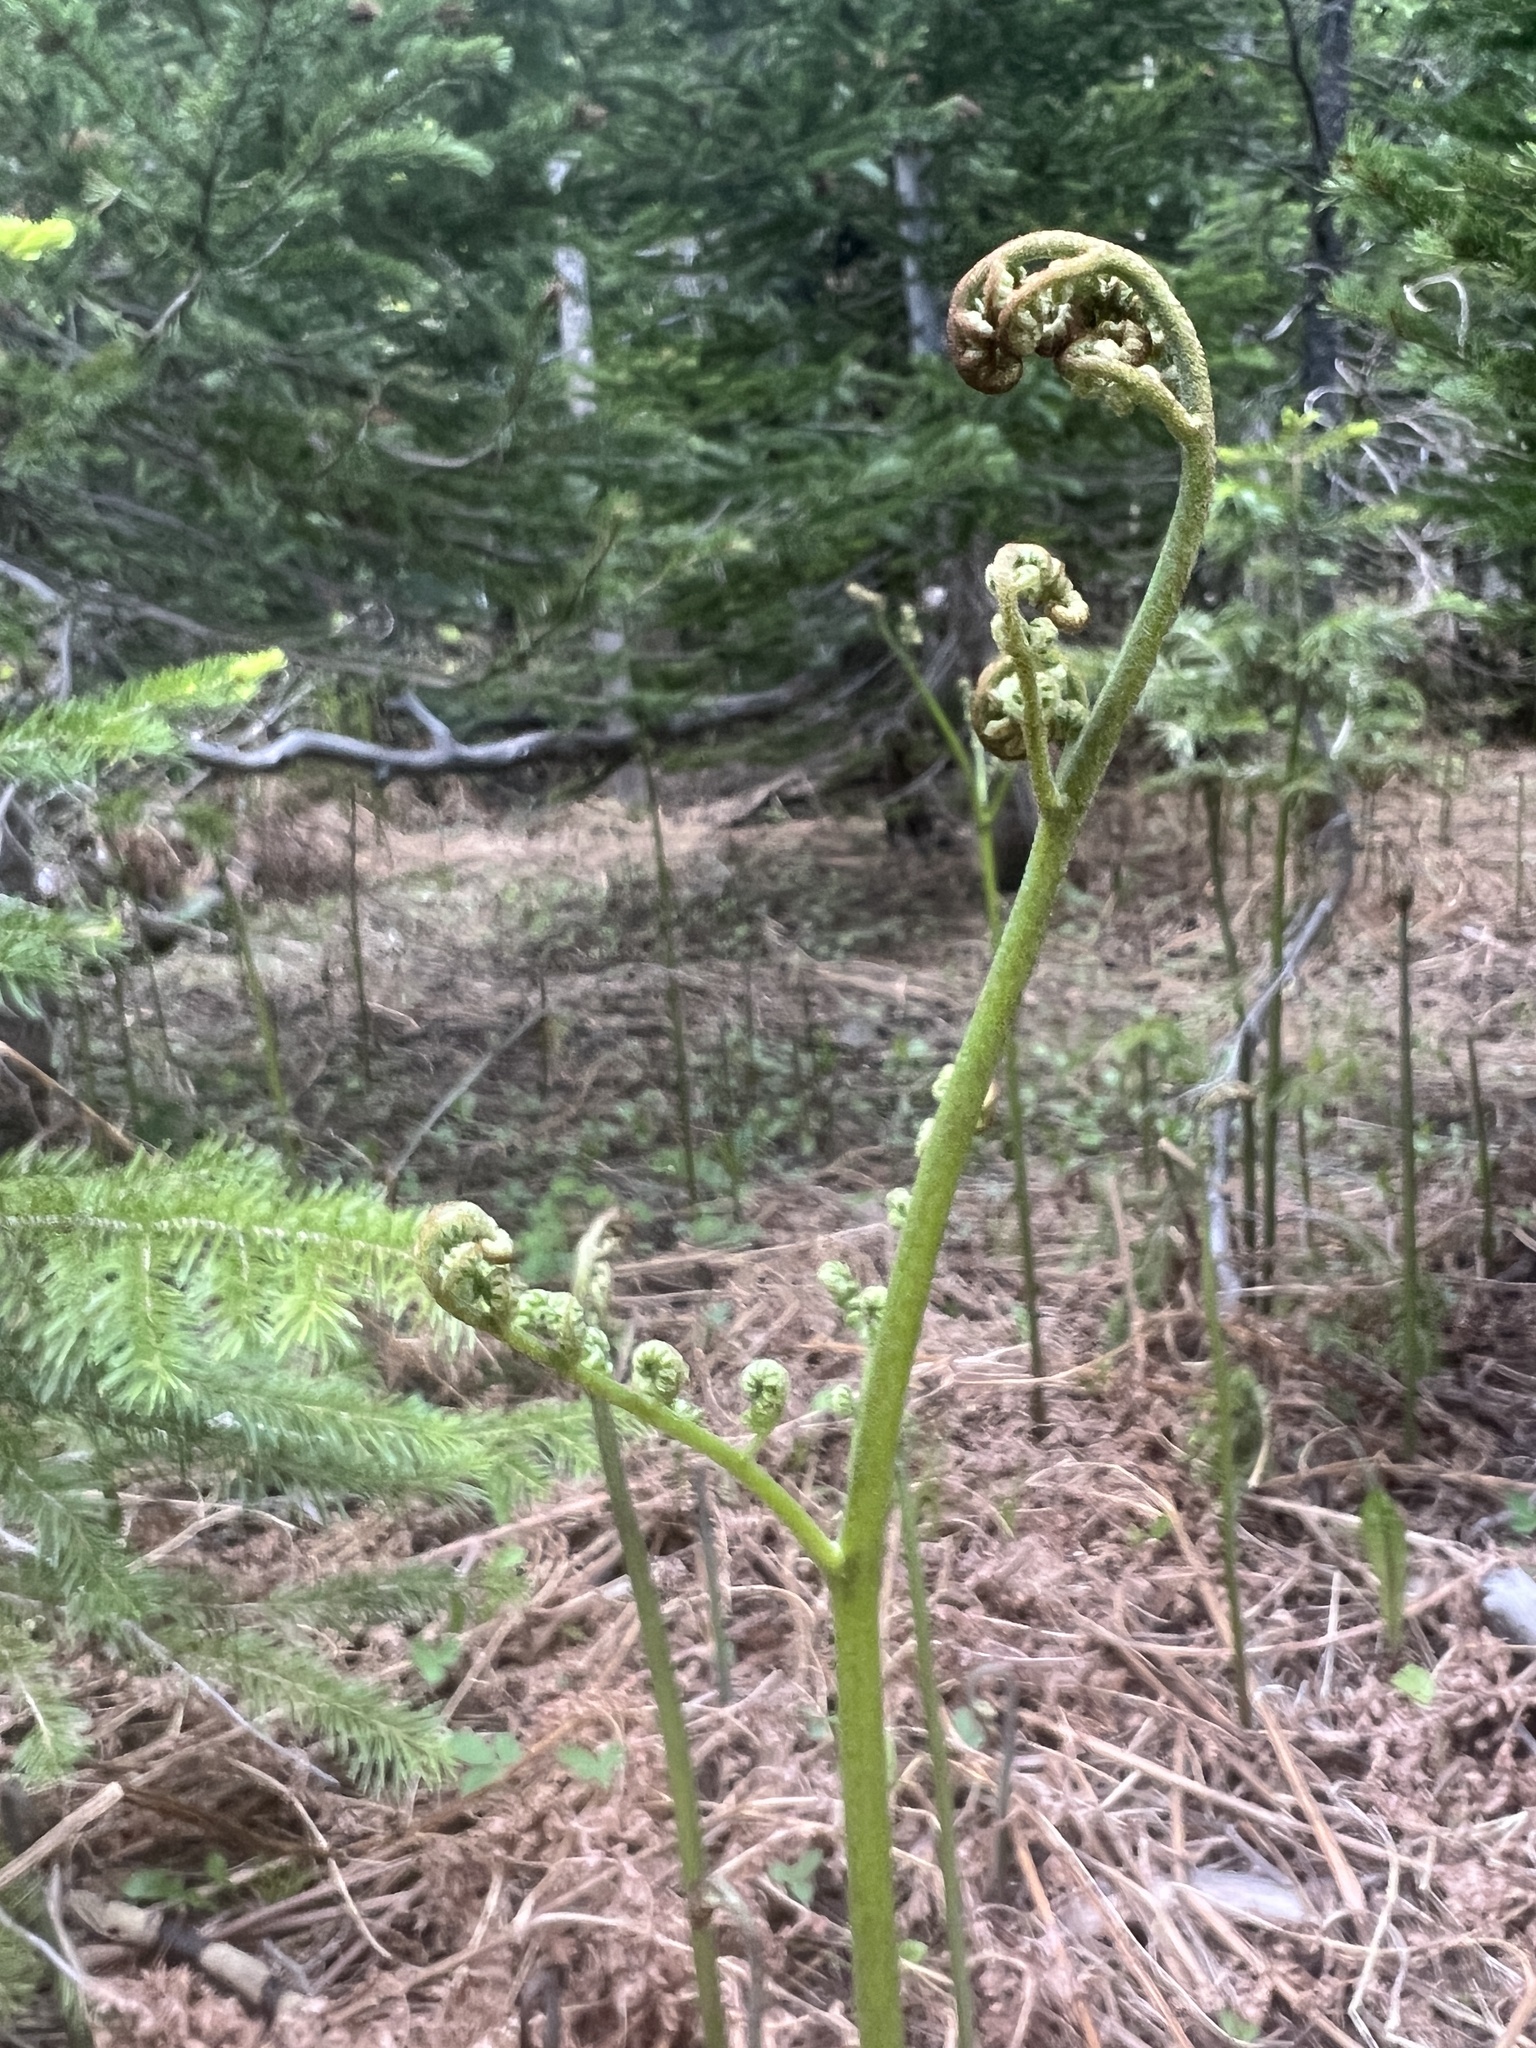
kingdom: Plantae
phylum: Tracheophyta
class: Polypodiopsida
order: Polypodiales
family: Dennstaedtiaceae
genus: Pteridium
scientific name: Pteridium aquilinum
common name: Bracken
